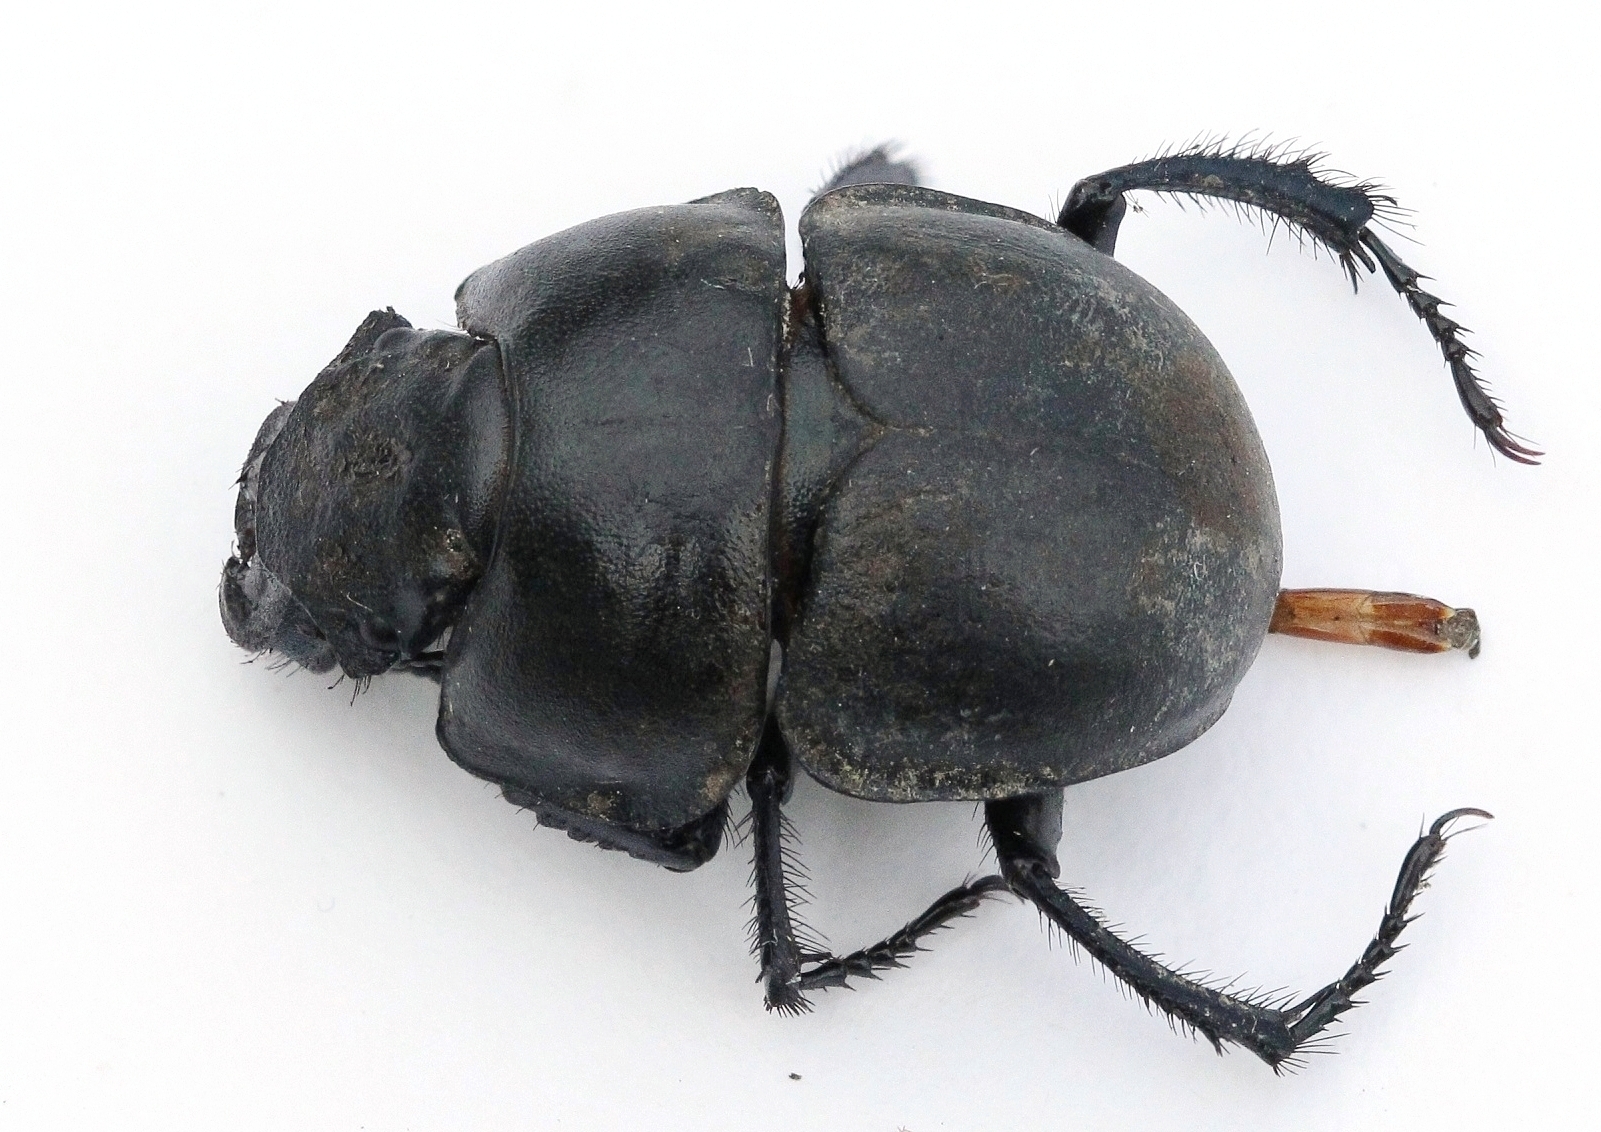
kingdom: Animalia
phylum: Arthropoda
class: Insecta
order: Coleoptera
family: Geotrupidae
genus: Lethrus
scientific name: Lethrus apterus
